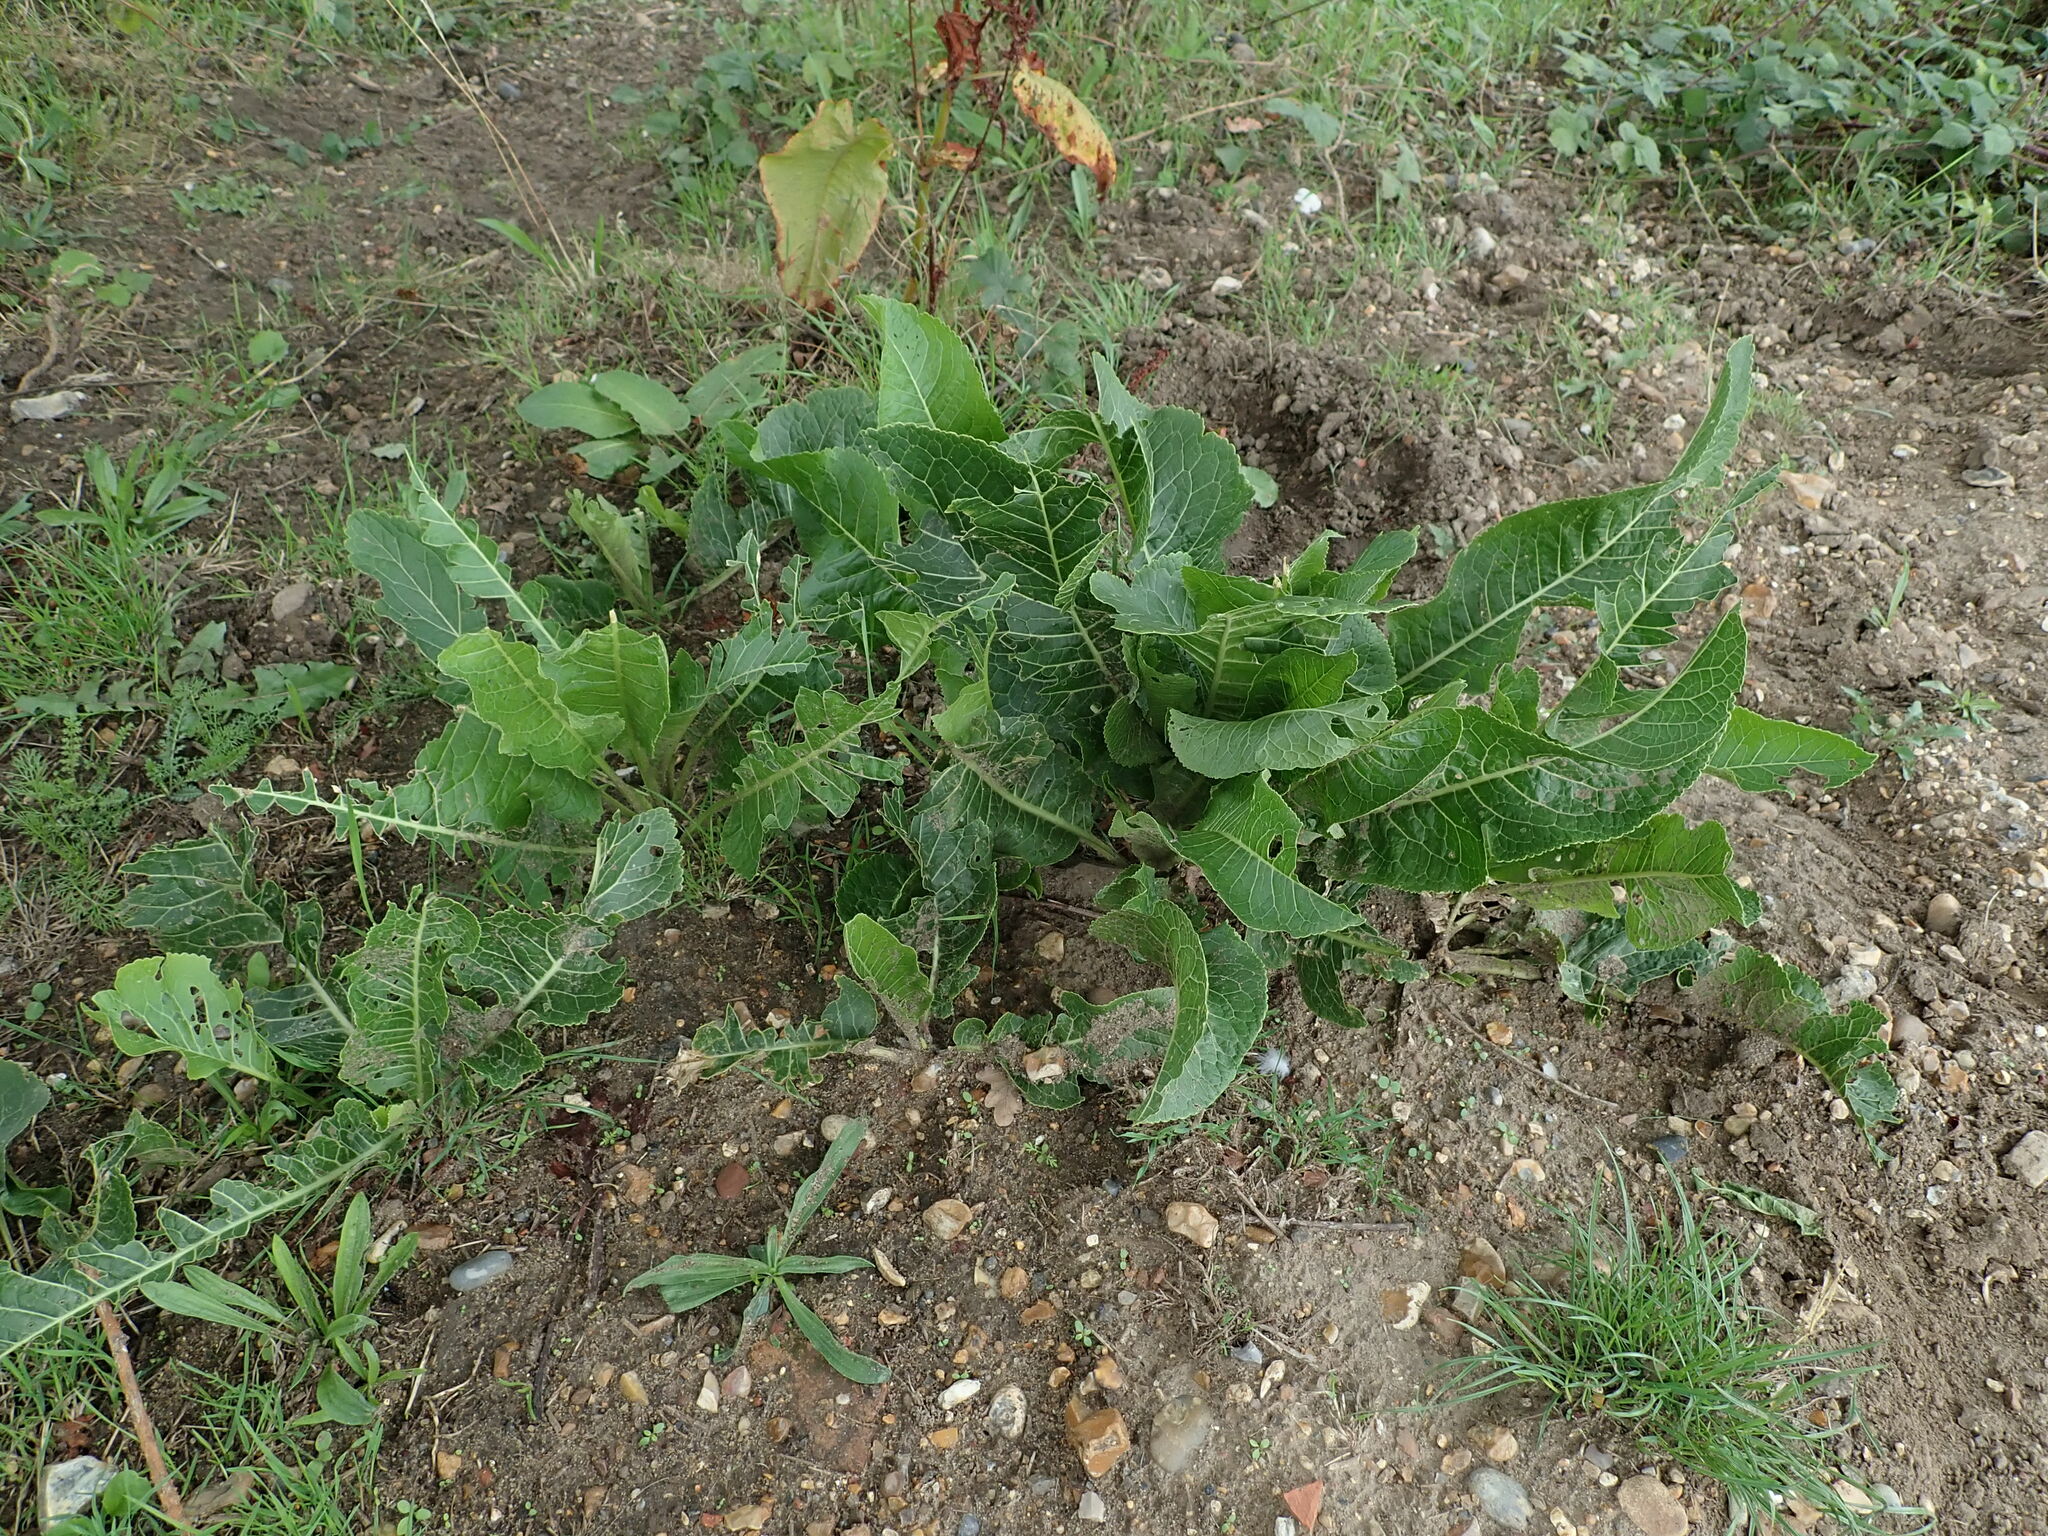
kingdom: Plantae
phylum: Tracheophyta
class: Magnoliopsida
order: Brassicales
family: Brassicaceae
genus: Armoracia
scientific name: Armoracia rusticana
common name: Horseradish
